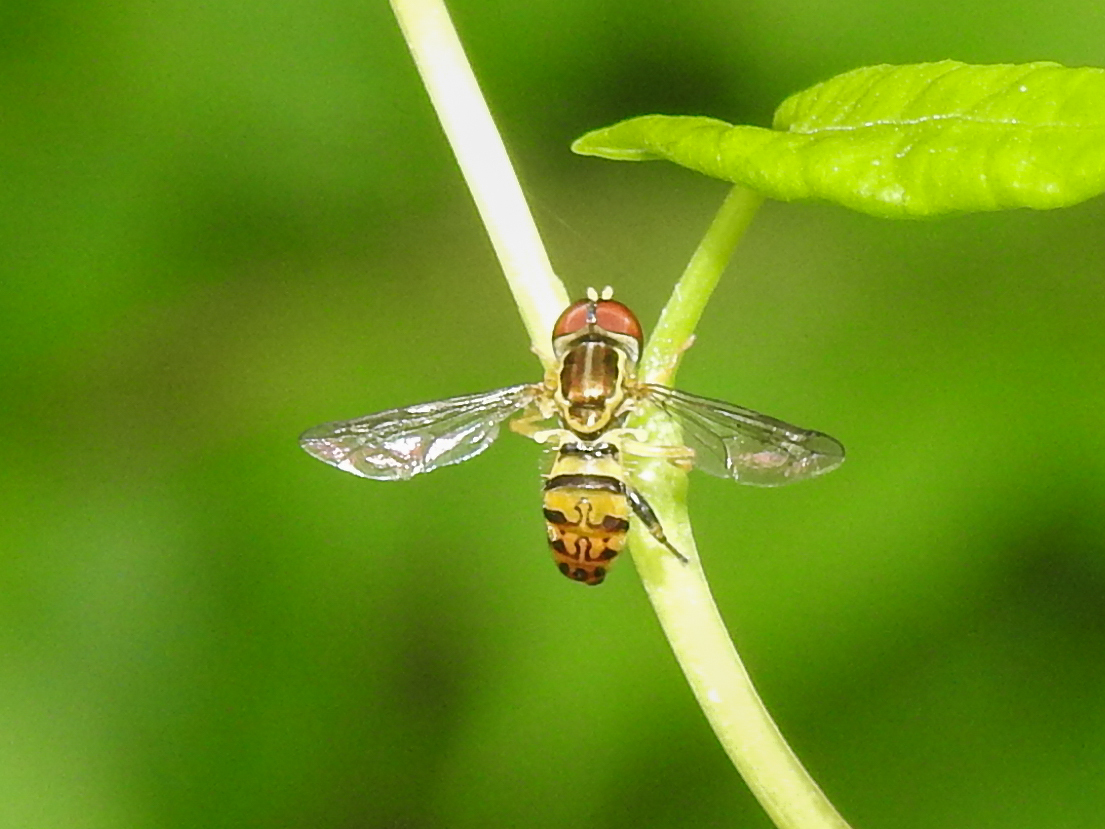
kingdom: Animalia
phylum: Arthropoda
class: Insecta
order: Diptera
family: Syrphidae
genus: Toxomerus
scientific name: Toxomerus geminatus
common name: Eastern calligrapher
